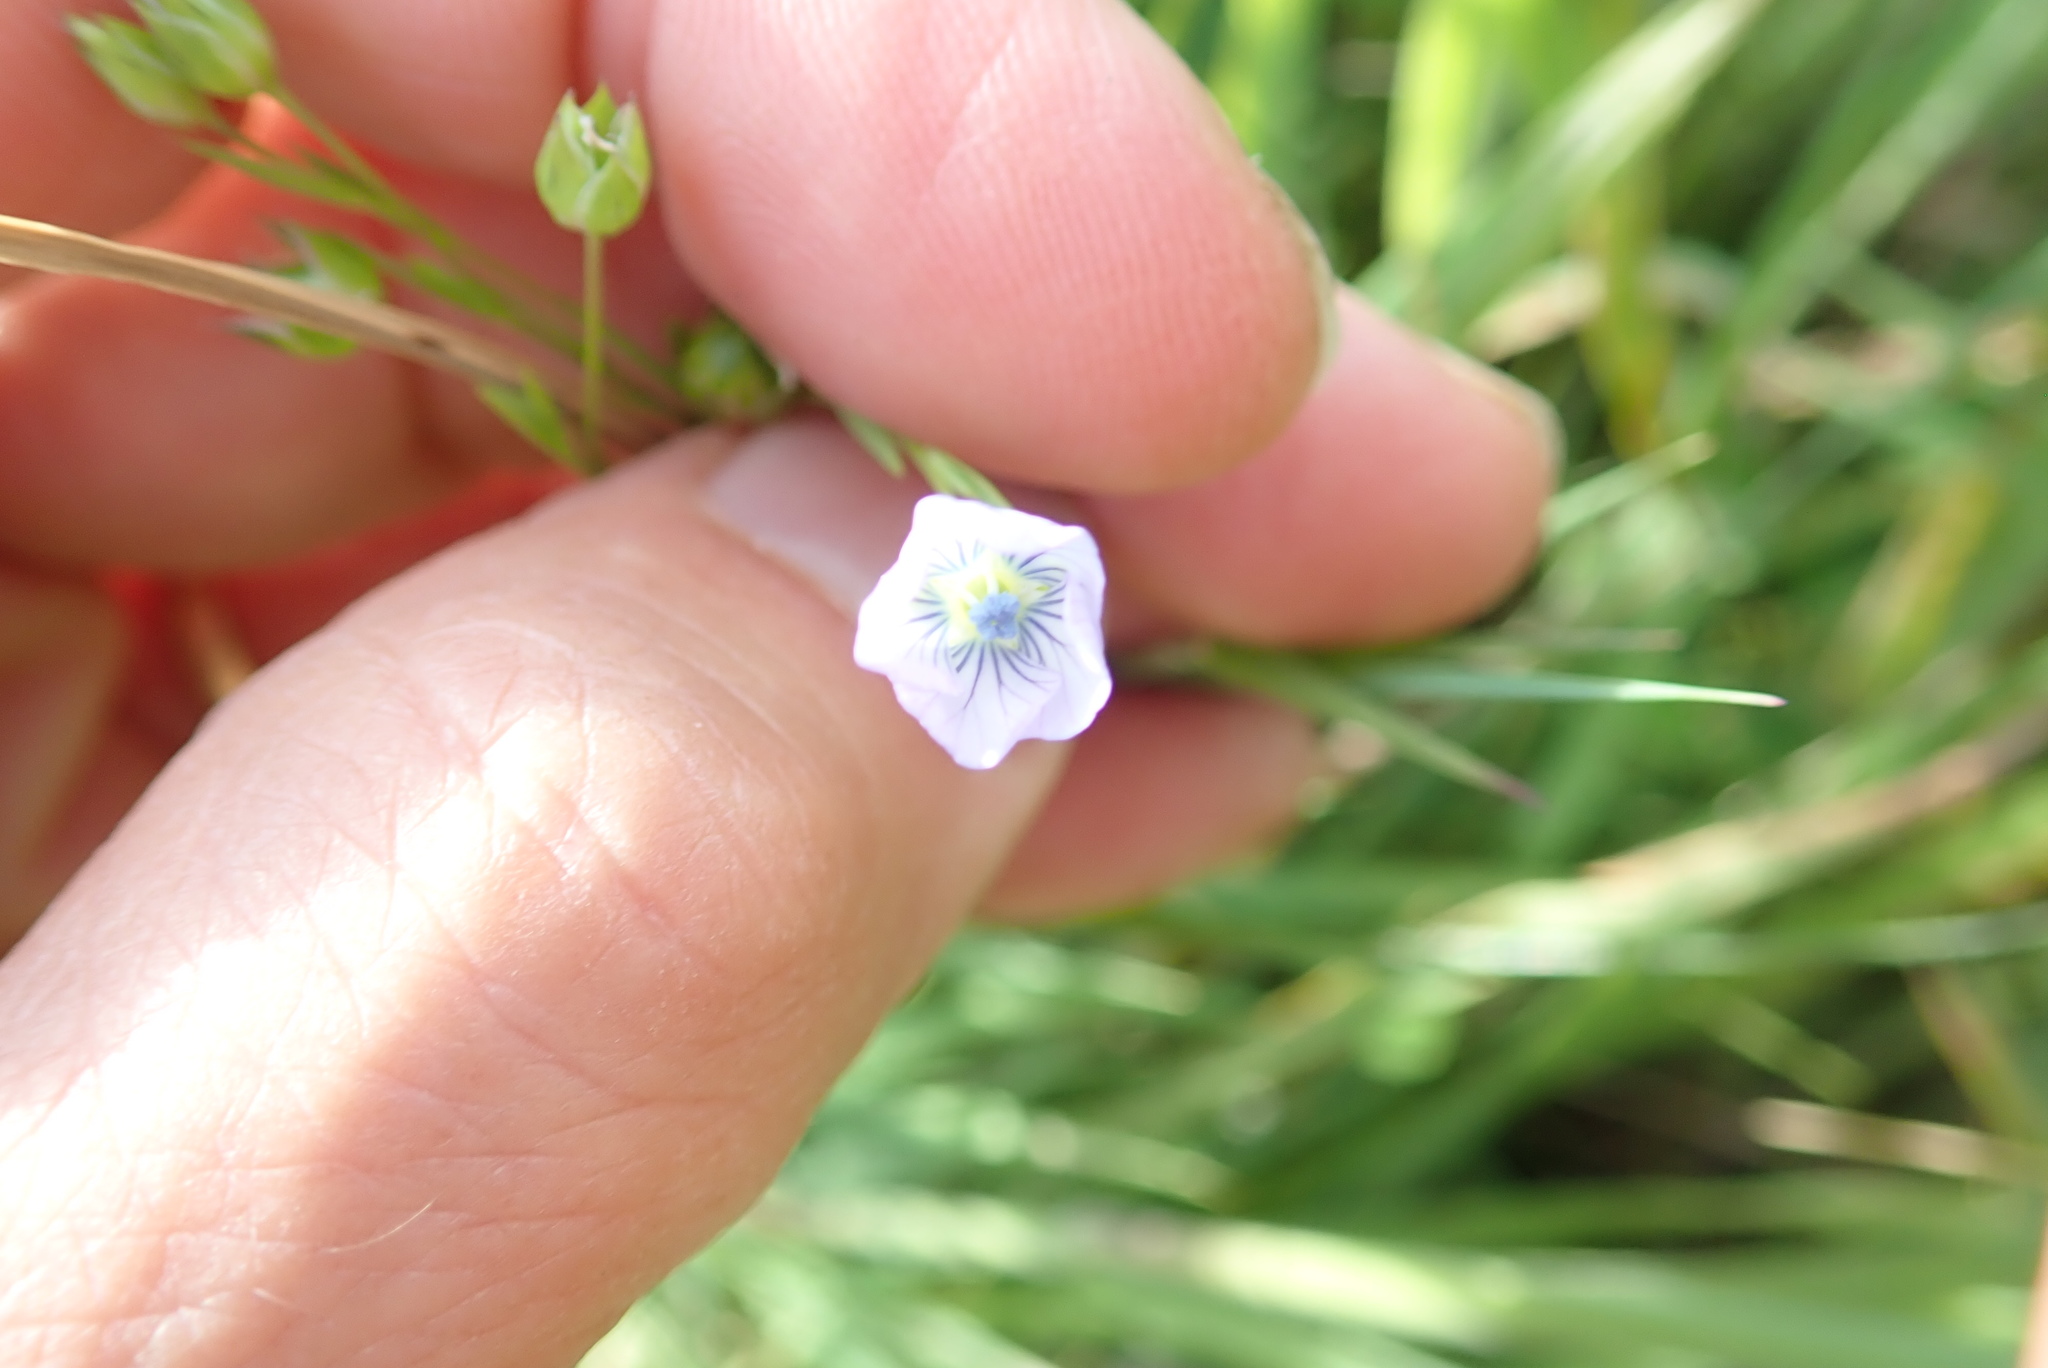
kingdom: Plantae
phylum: Tracheophyta
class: Magnoliopsida
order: Malpighiales
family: Linaceae
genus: Linum
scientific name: Linum bienne
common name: Pale flax
